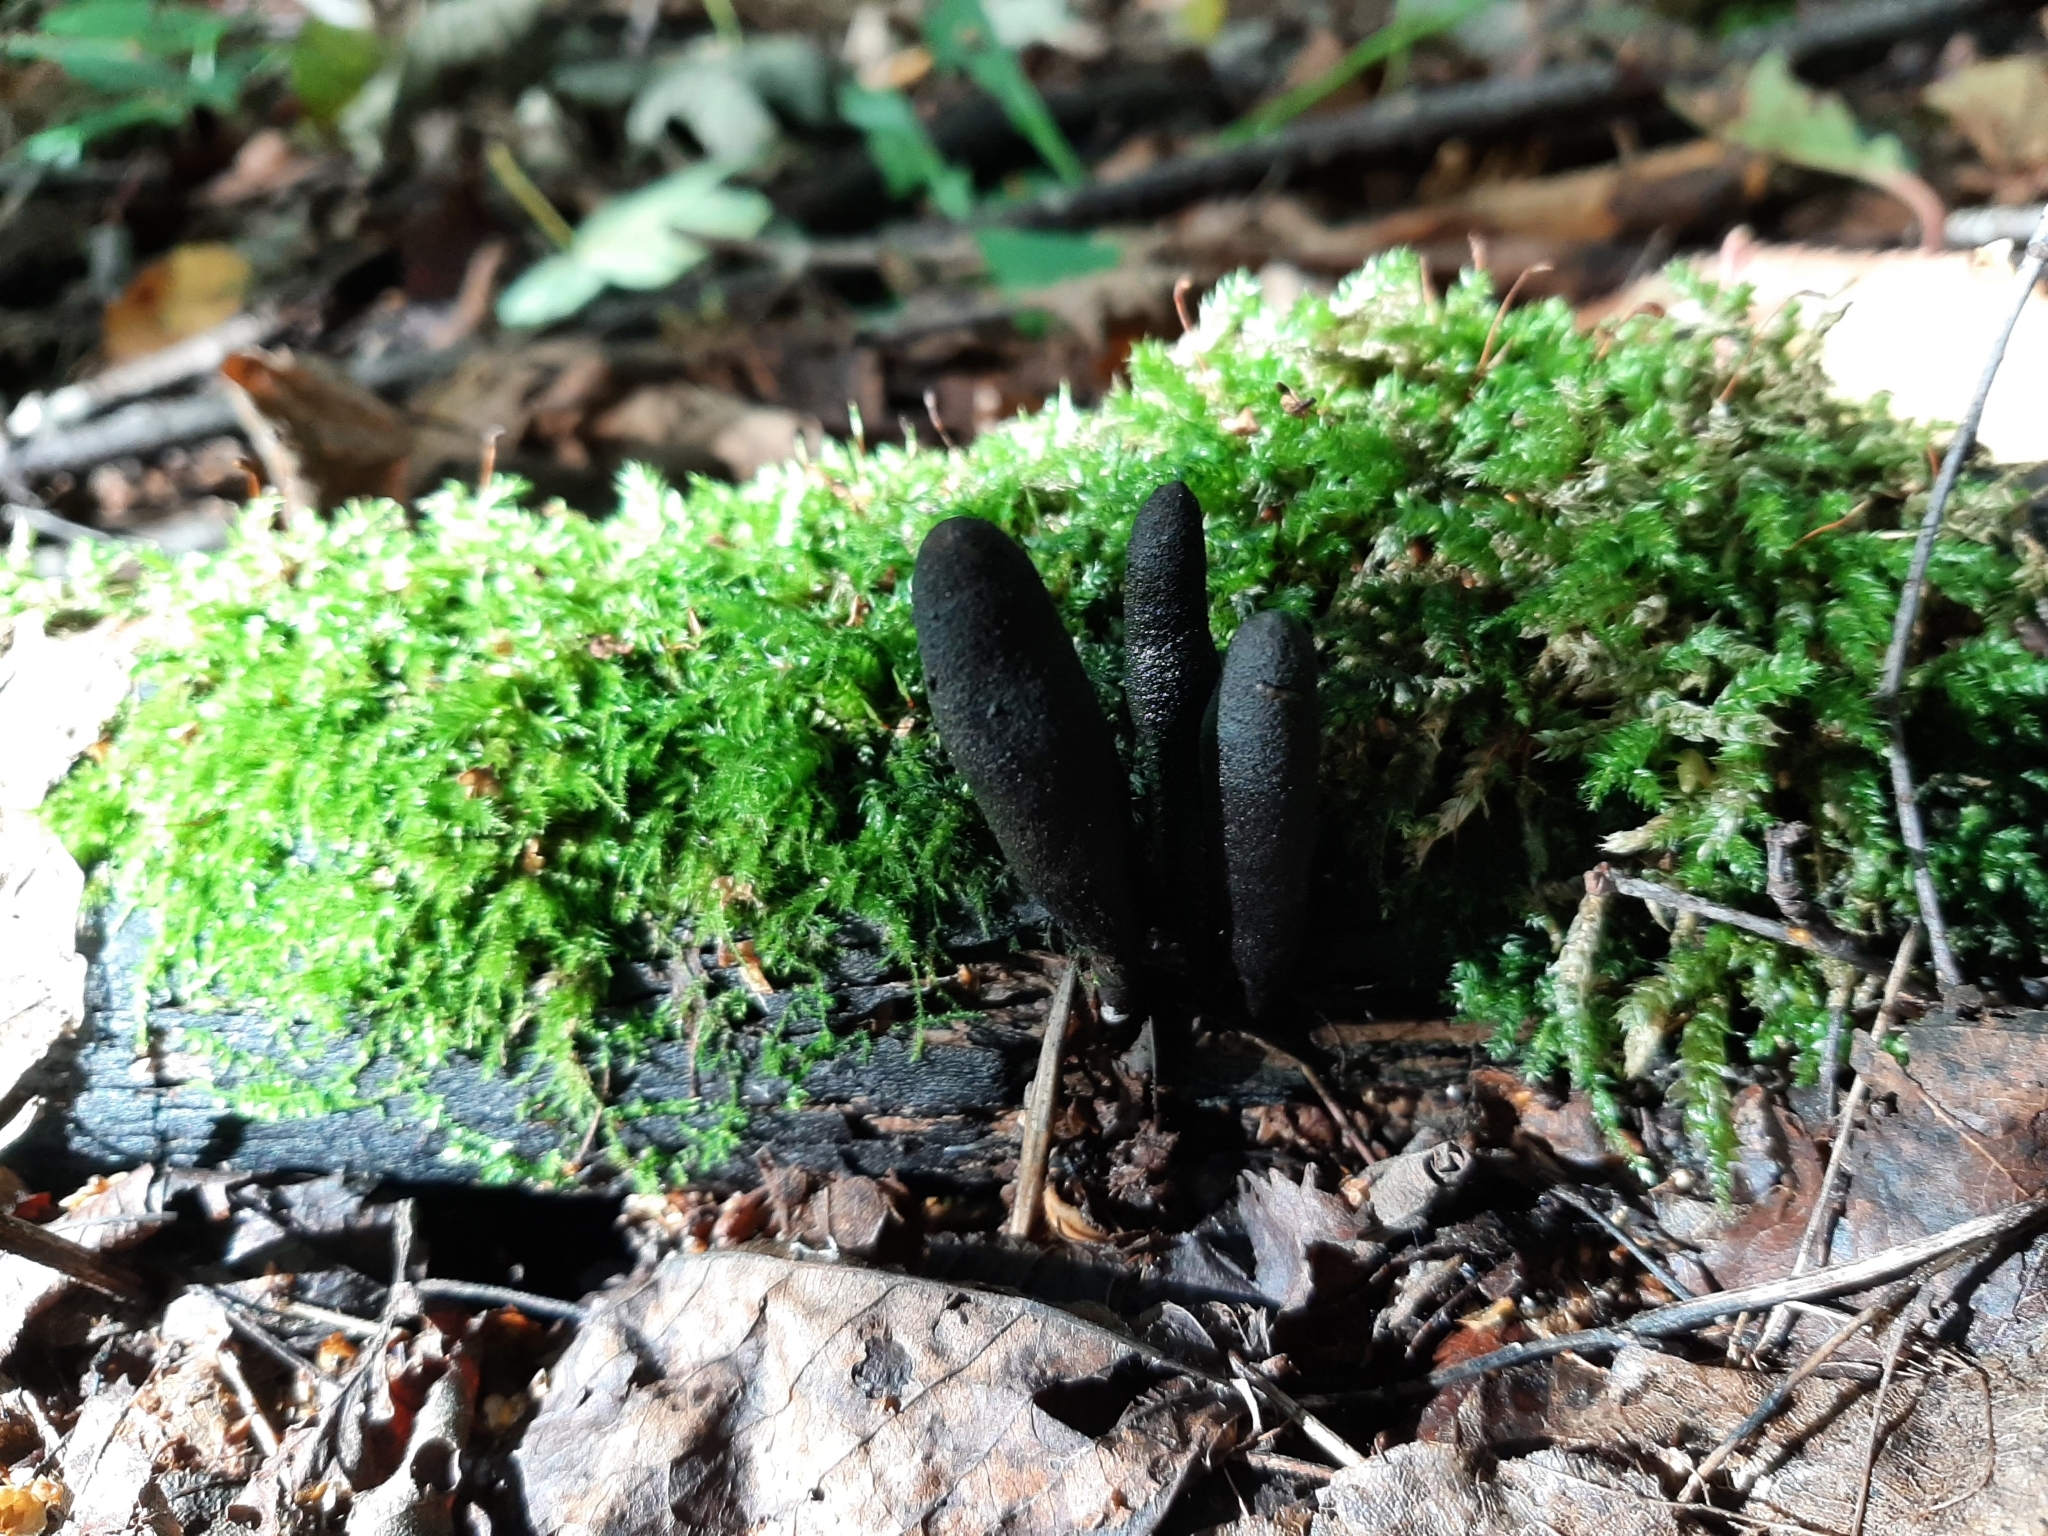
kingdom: Fungi
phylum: Ascomycota
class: Sordariomycetes
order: Xylariales
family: Xylariaceae
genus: Xylaria
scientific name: Xylaria polymorpha
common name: Dead man's fingers
